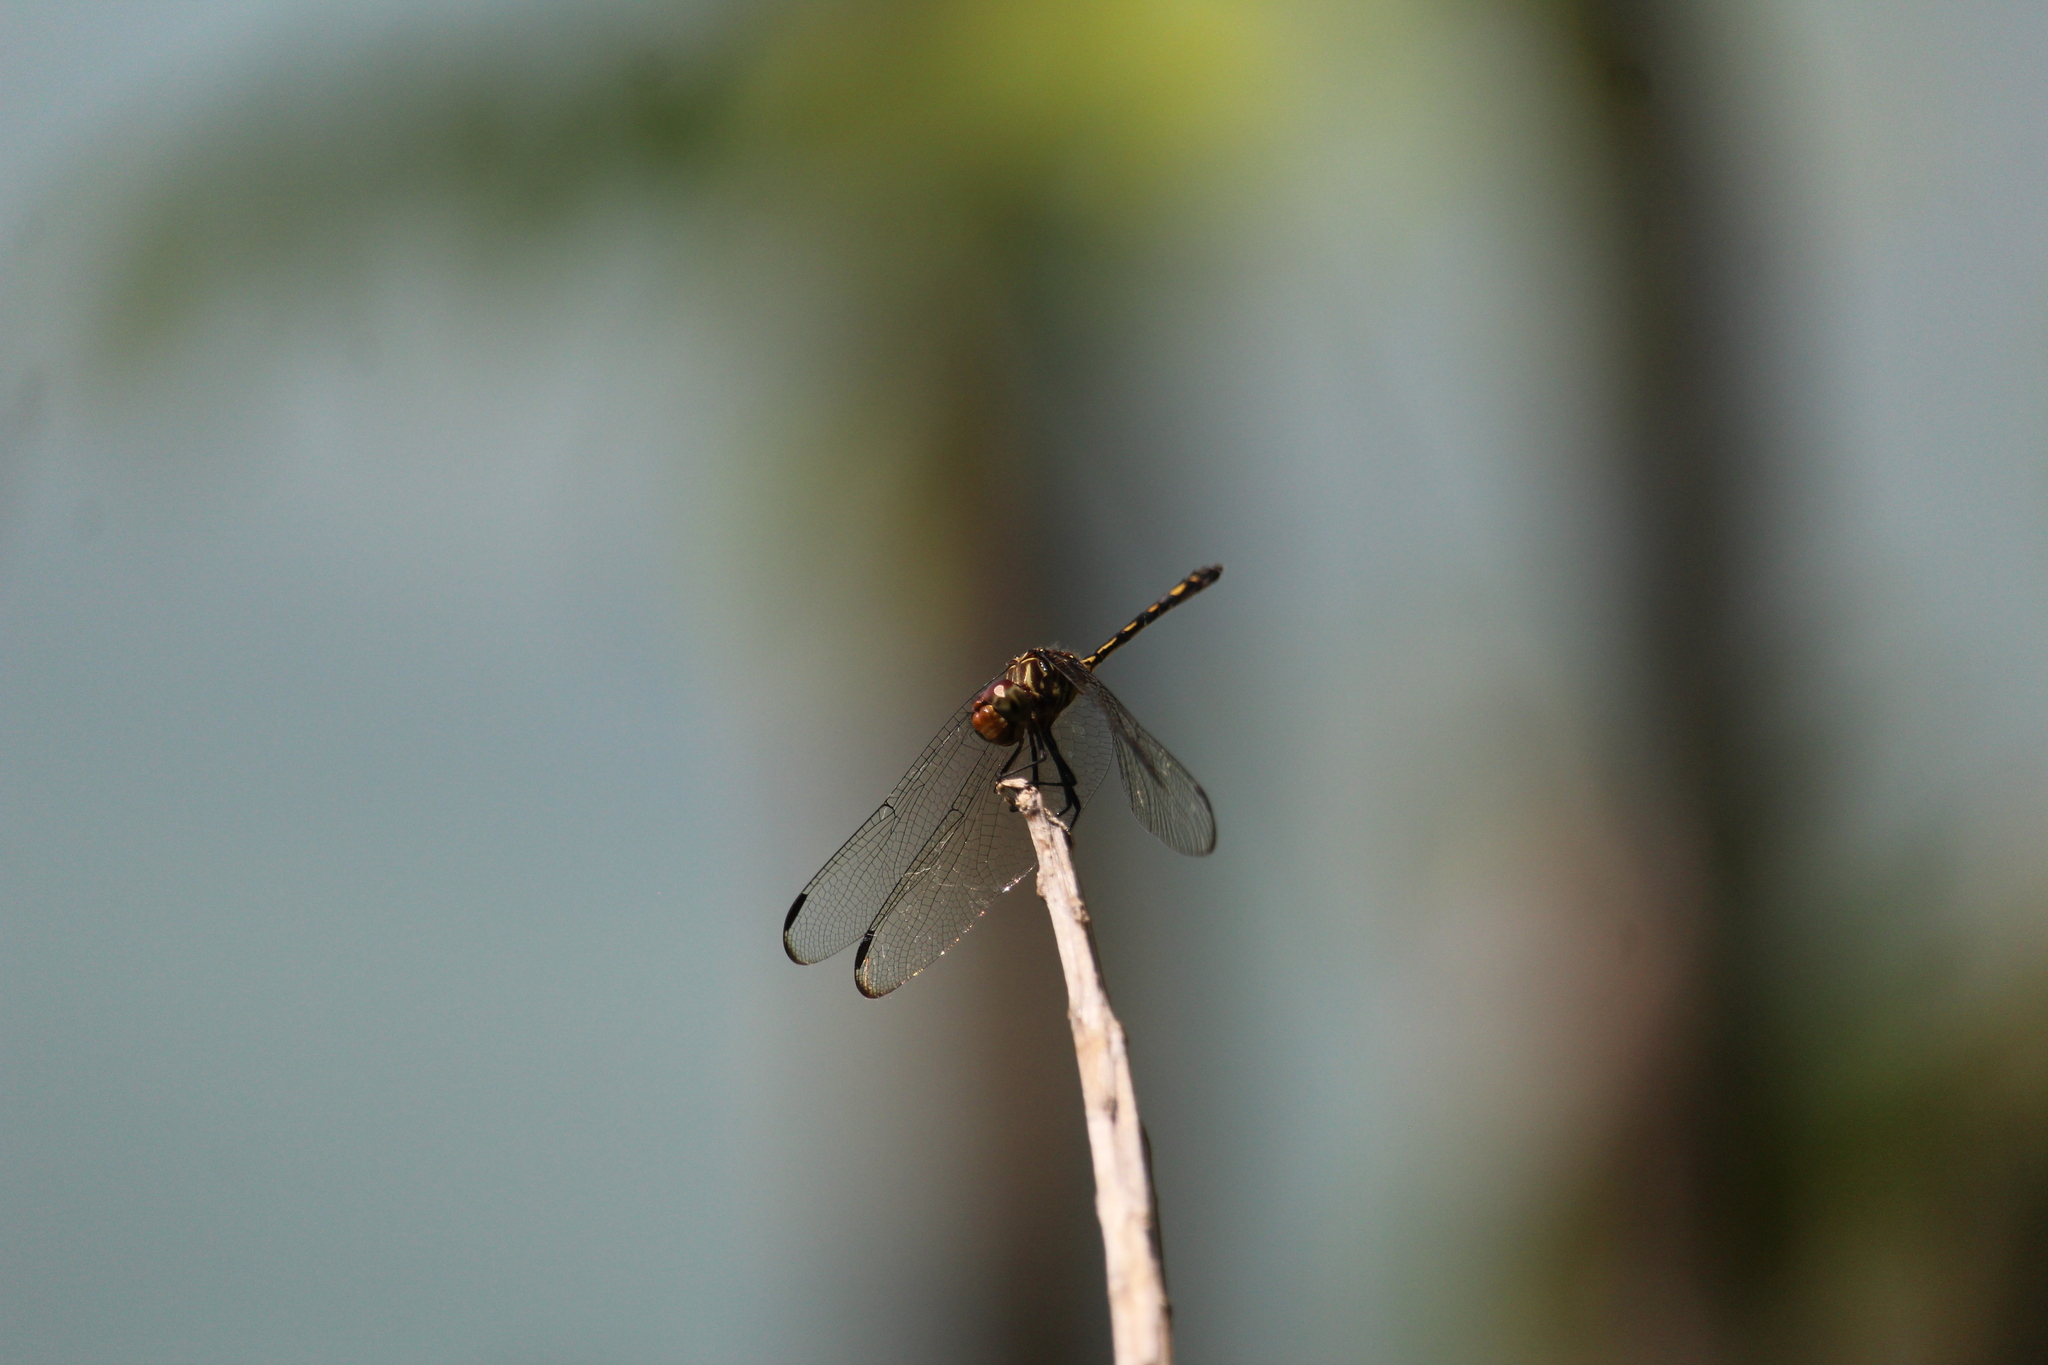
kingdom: Animalia
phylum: Arthropoda
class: Insecta
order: Odonata
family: Libellulidae
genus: Dythemis
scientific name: Dythemis sterilis
